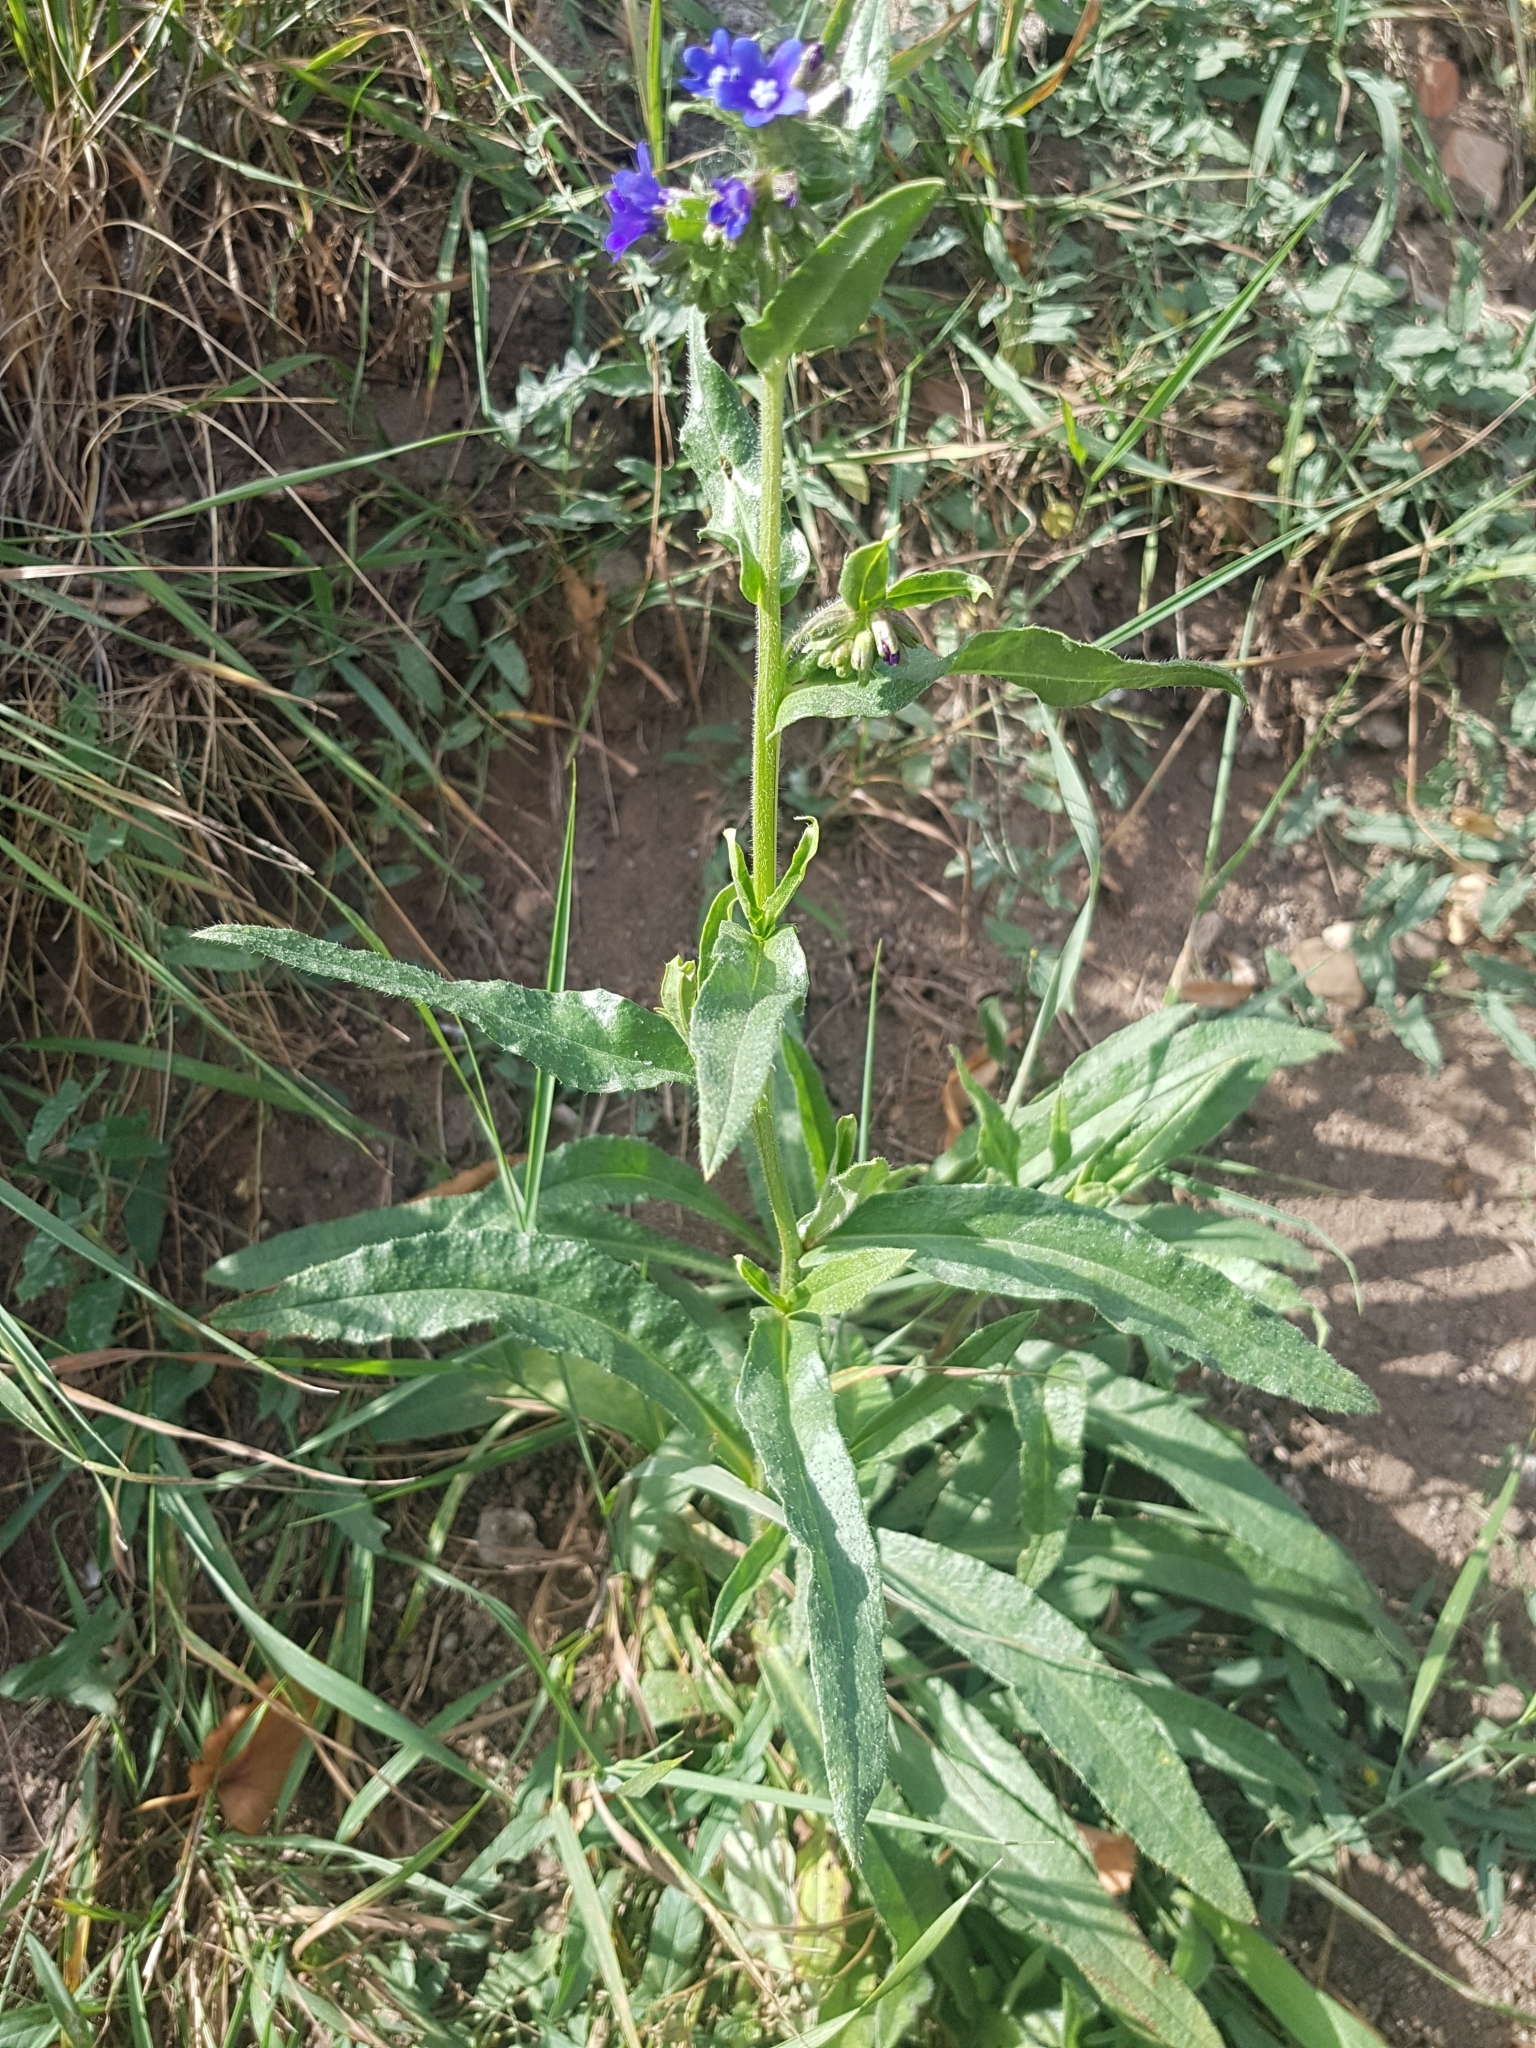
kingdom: Plantae
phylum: Tracheophyta
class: Magnoliopsida
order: Boraginales
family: Boraginaceae
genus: Anchusa
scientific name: Anchusa officinalis
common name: Alkanet
